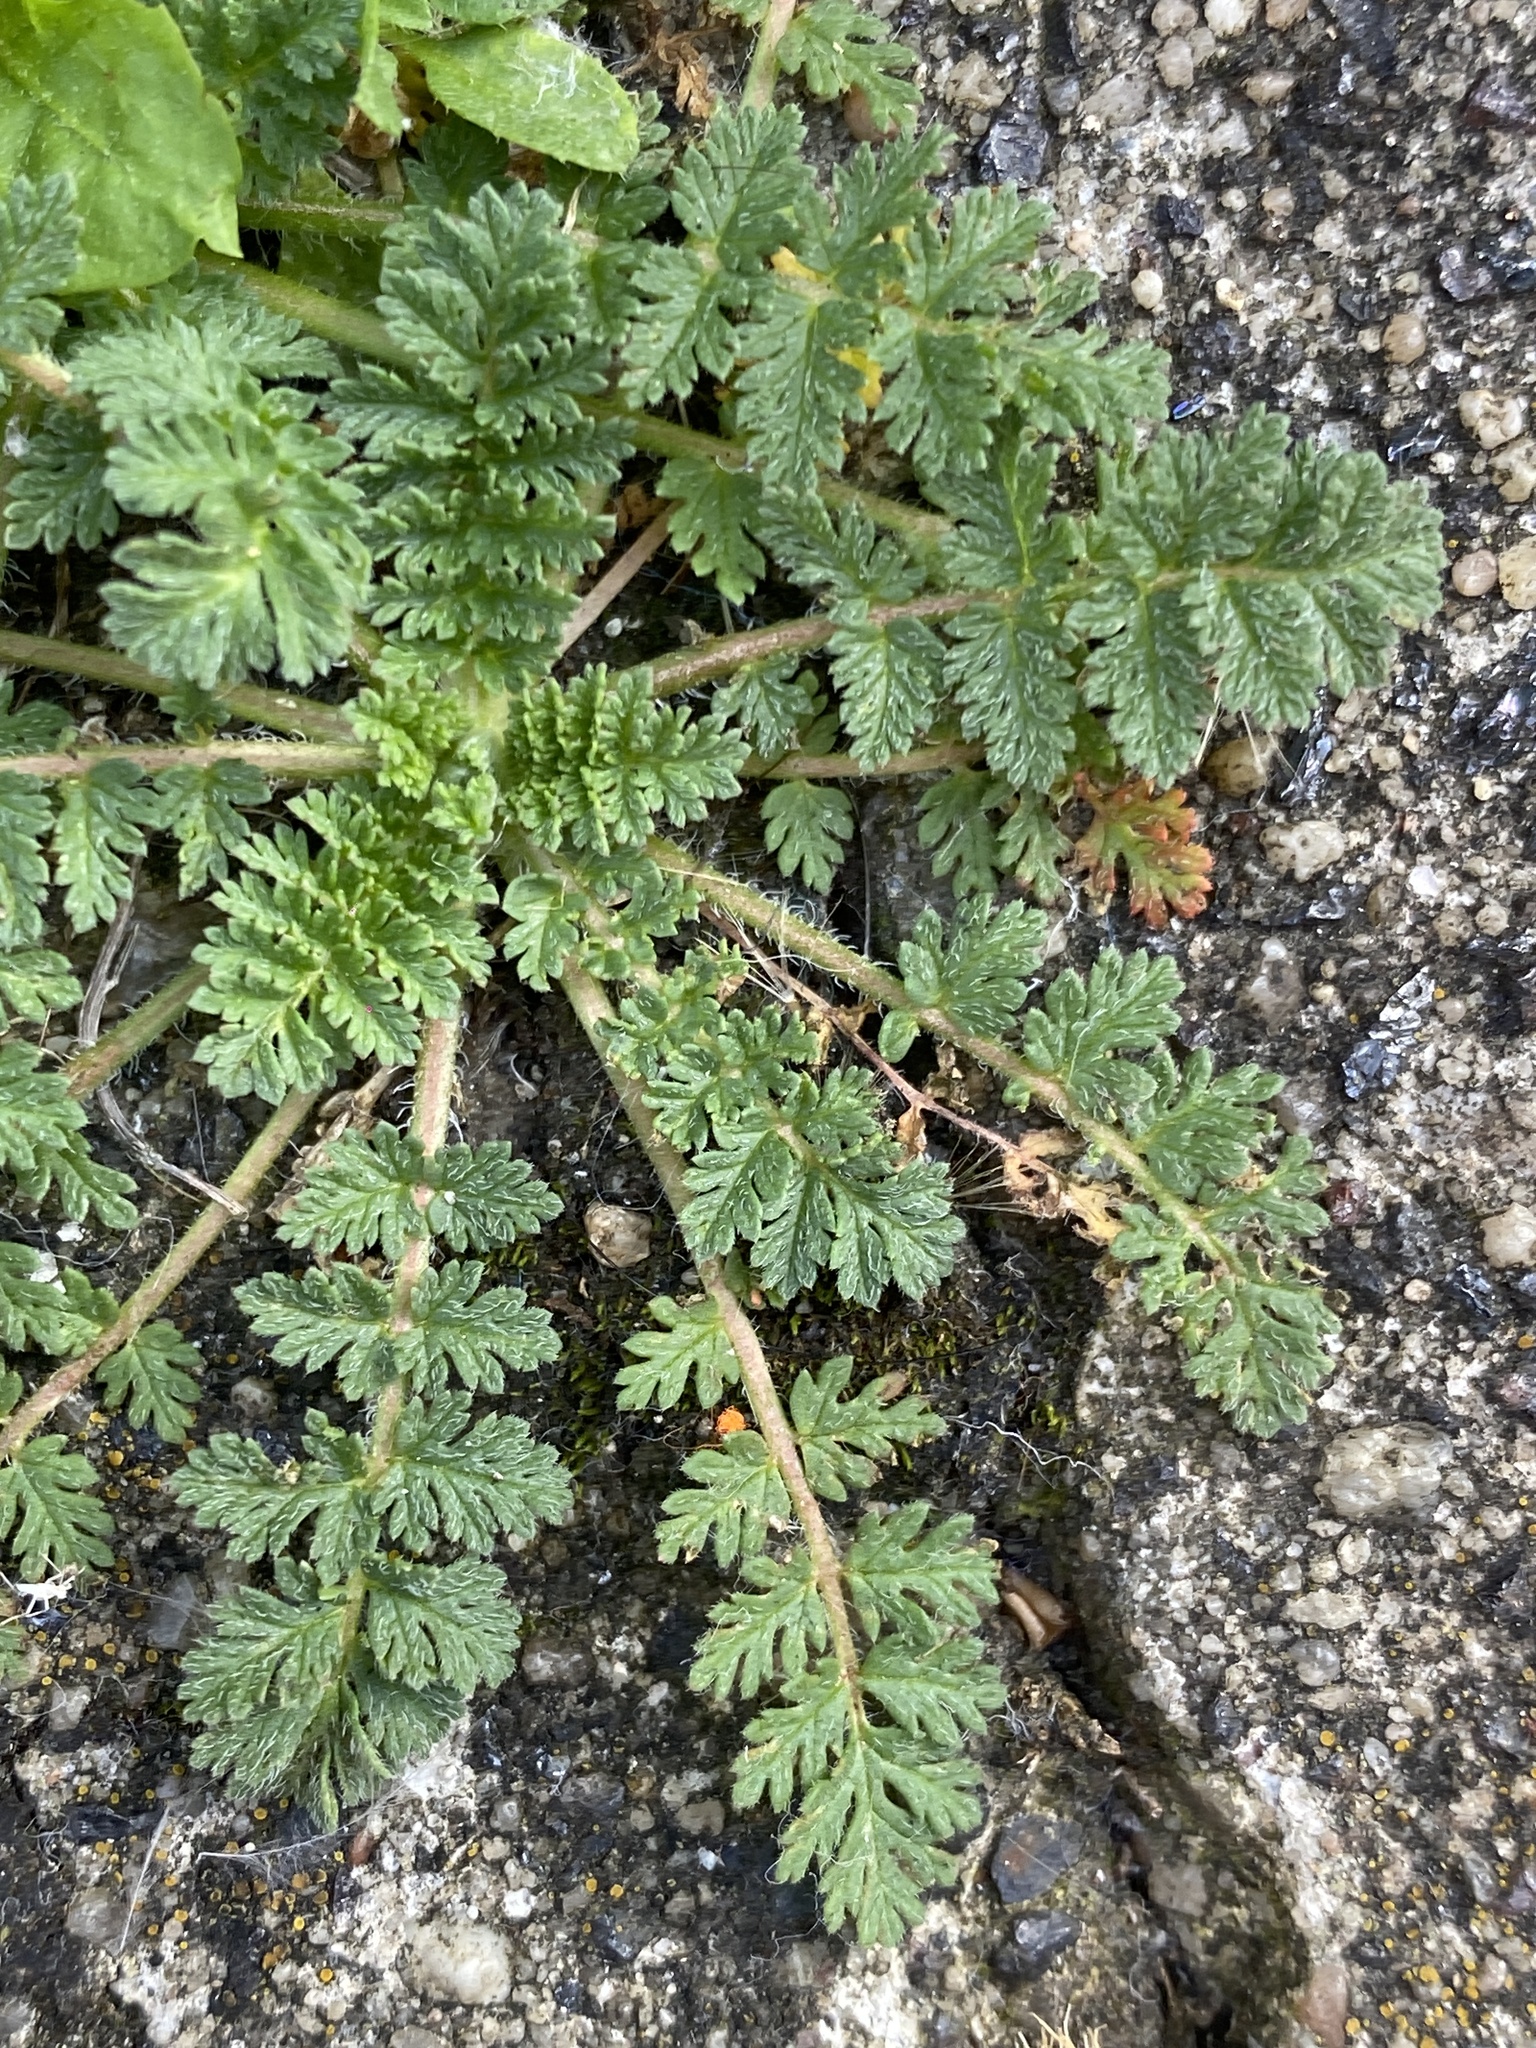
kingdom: Plantae
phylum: Tracheophyta
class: Magnoliopsida
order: Geraniales
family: Geraniaceae
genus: Erodium
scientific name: Erodium cicutarium
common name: Common stork's-bill
